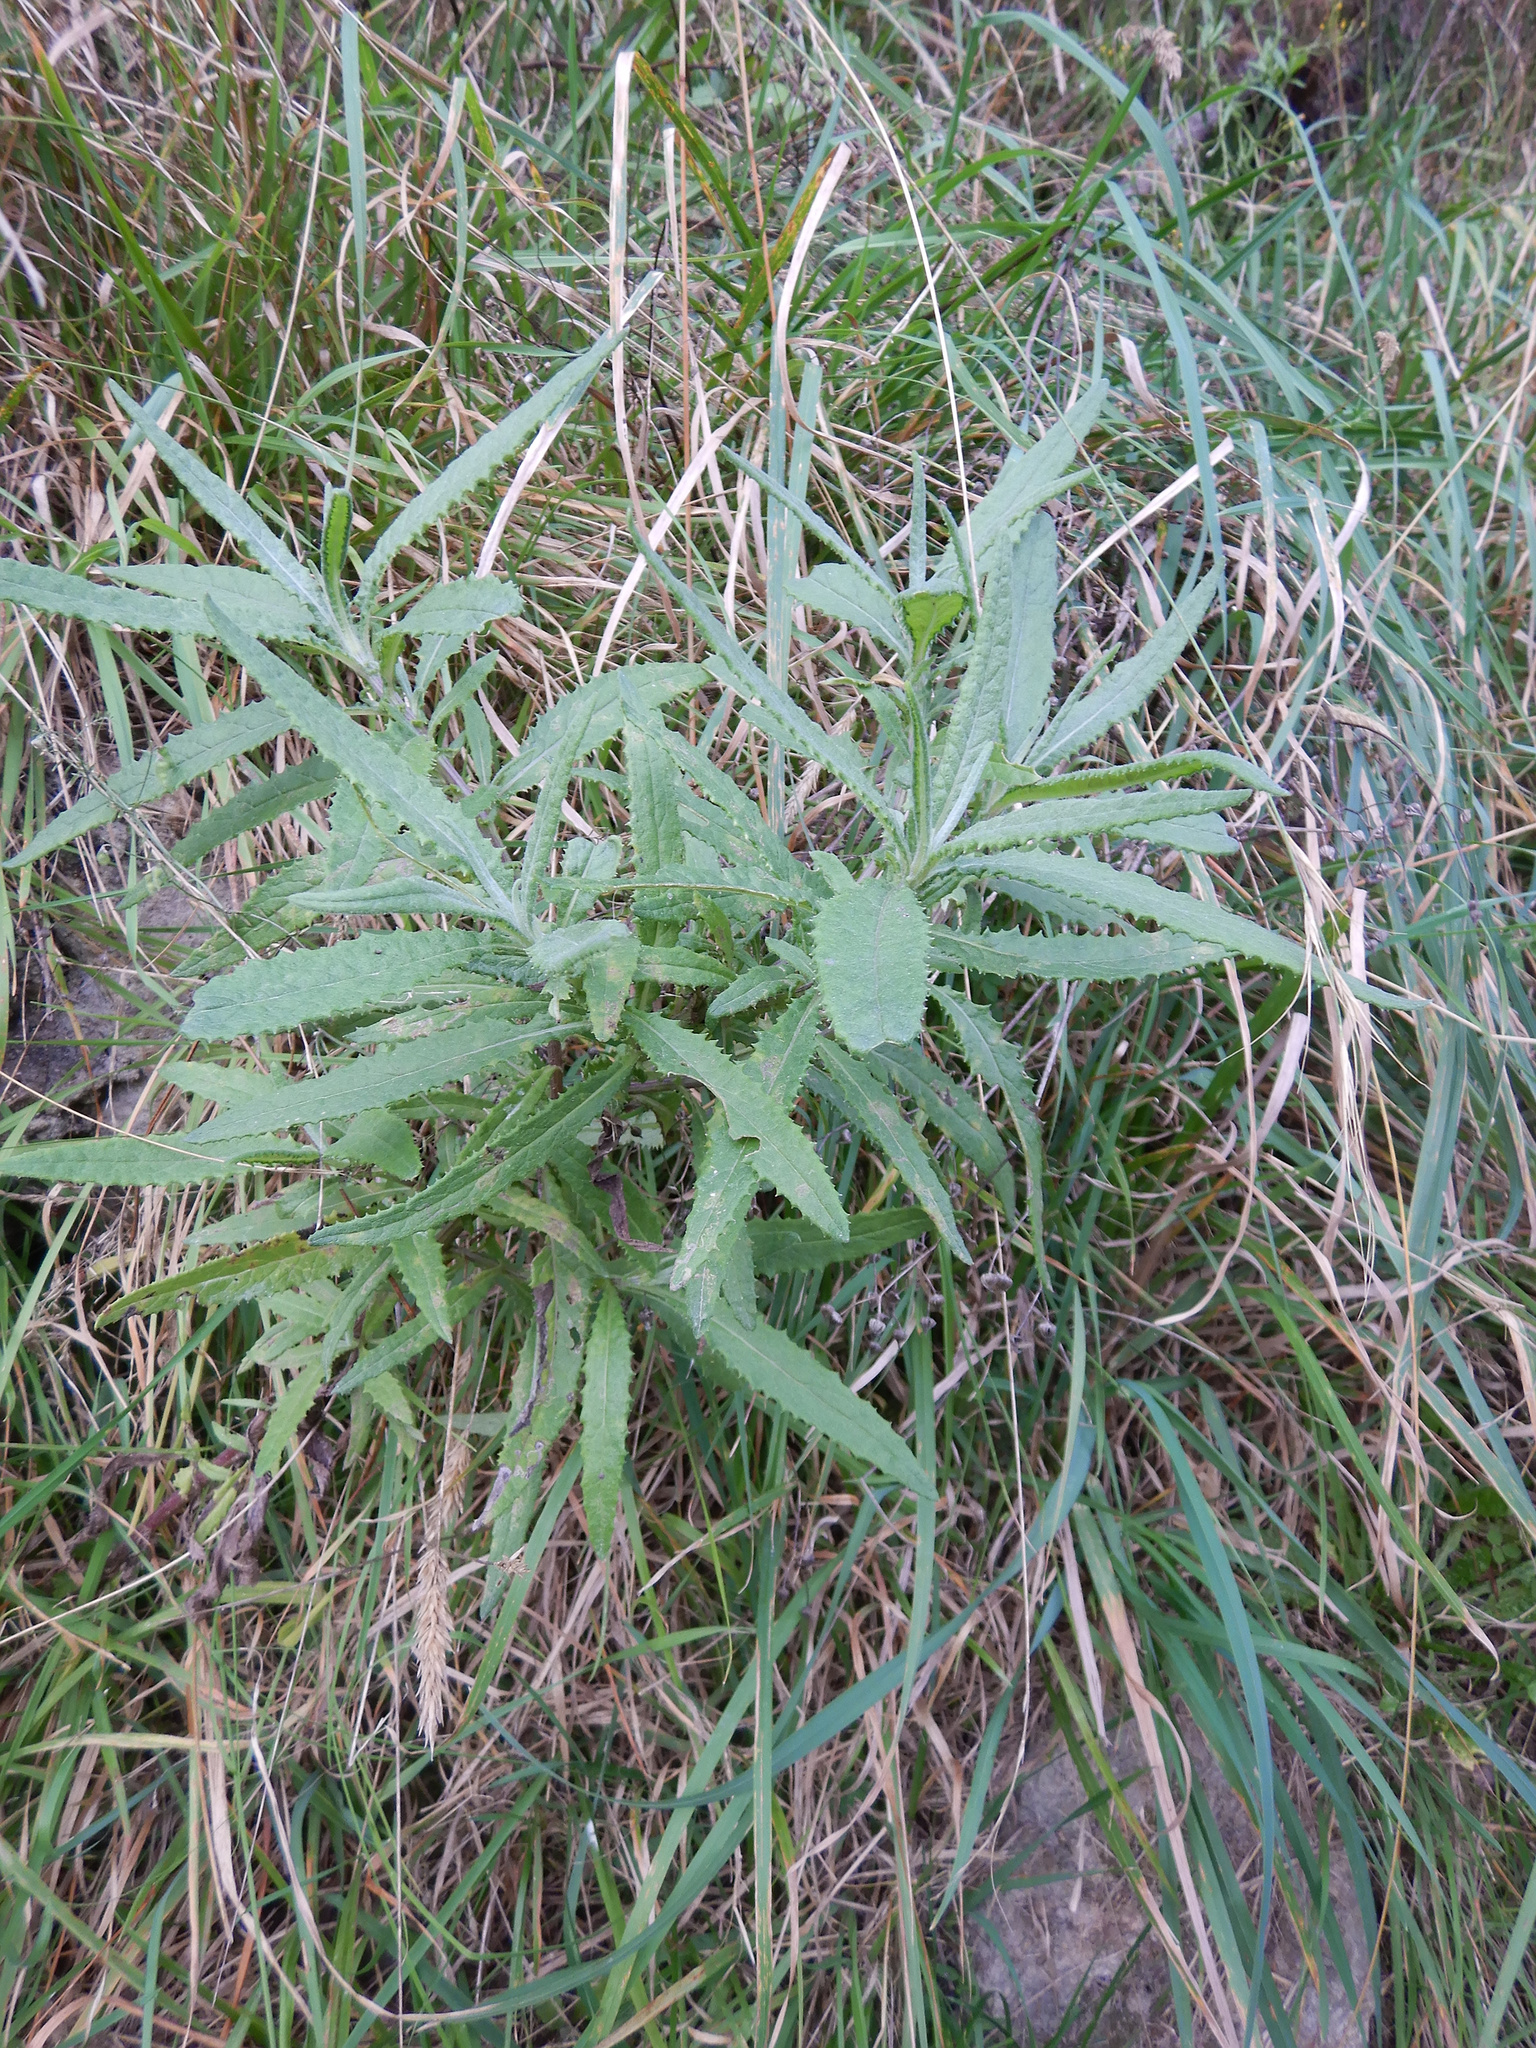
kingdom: Plantae
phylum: Tracheophyta
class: Magnoliopsida
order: Asterales
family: Asteraceae
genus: Senecio
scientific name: Senecio minimus
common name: Toothed fireweed
